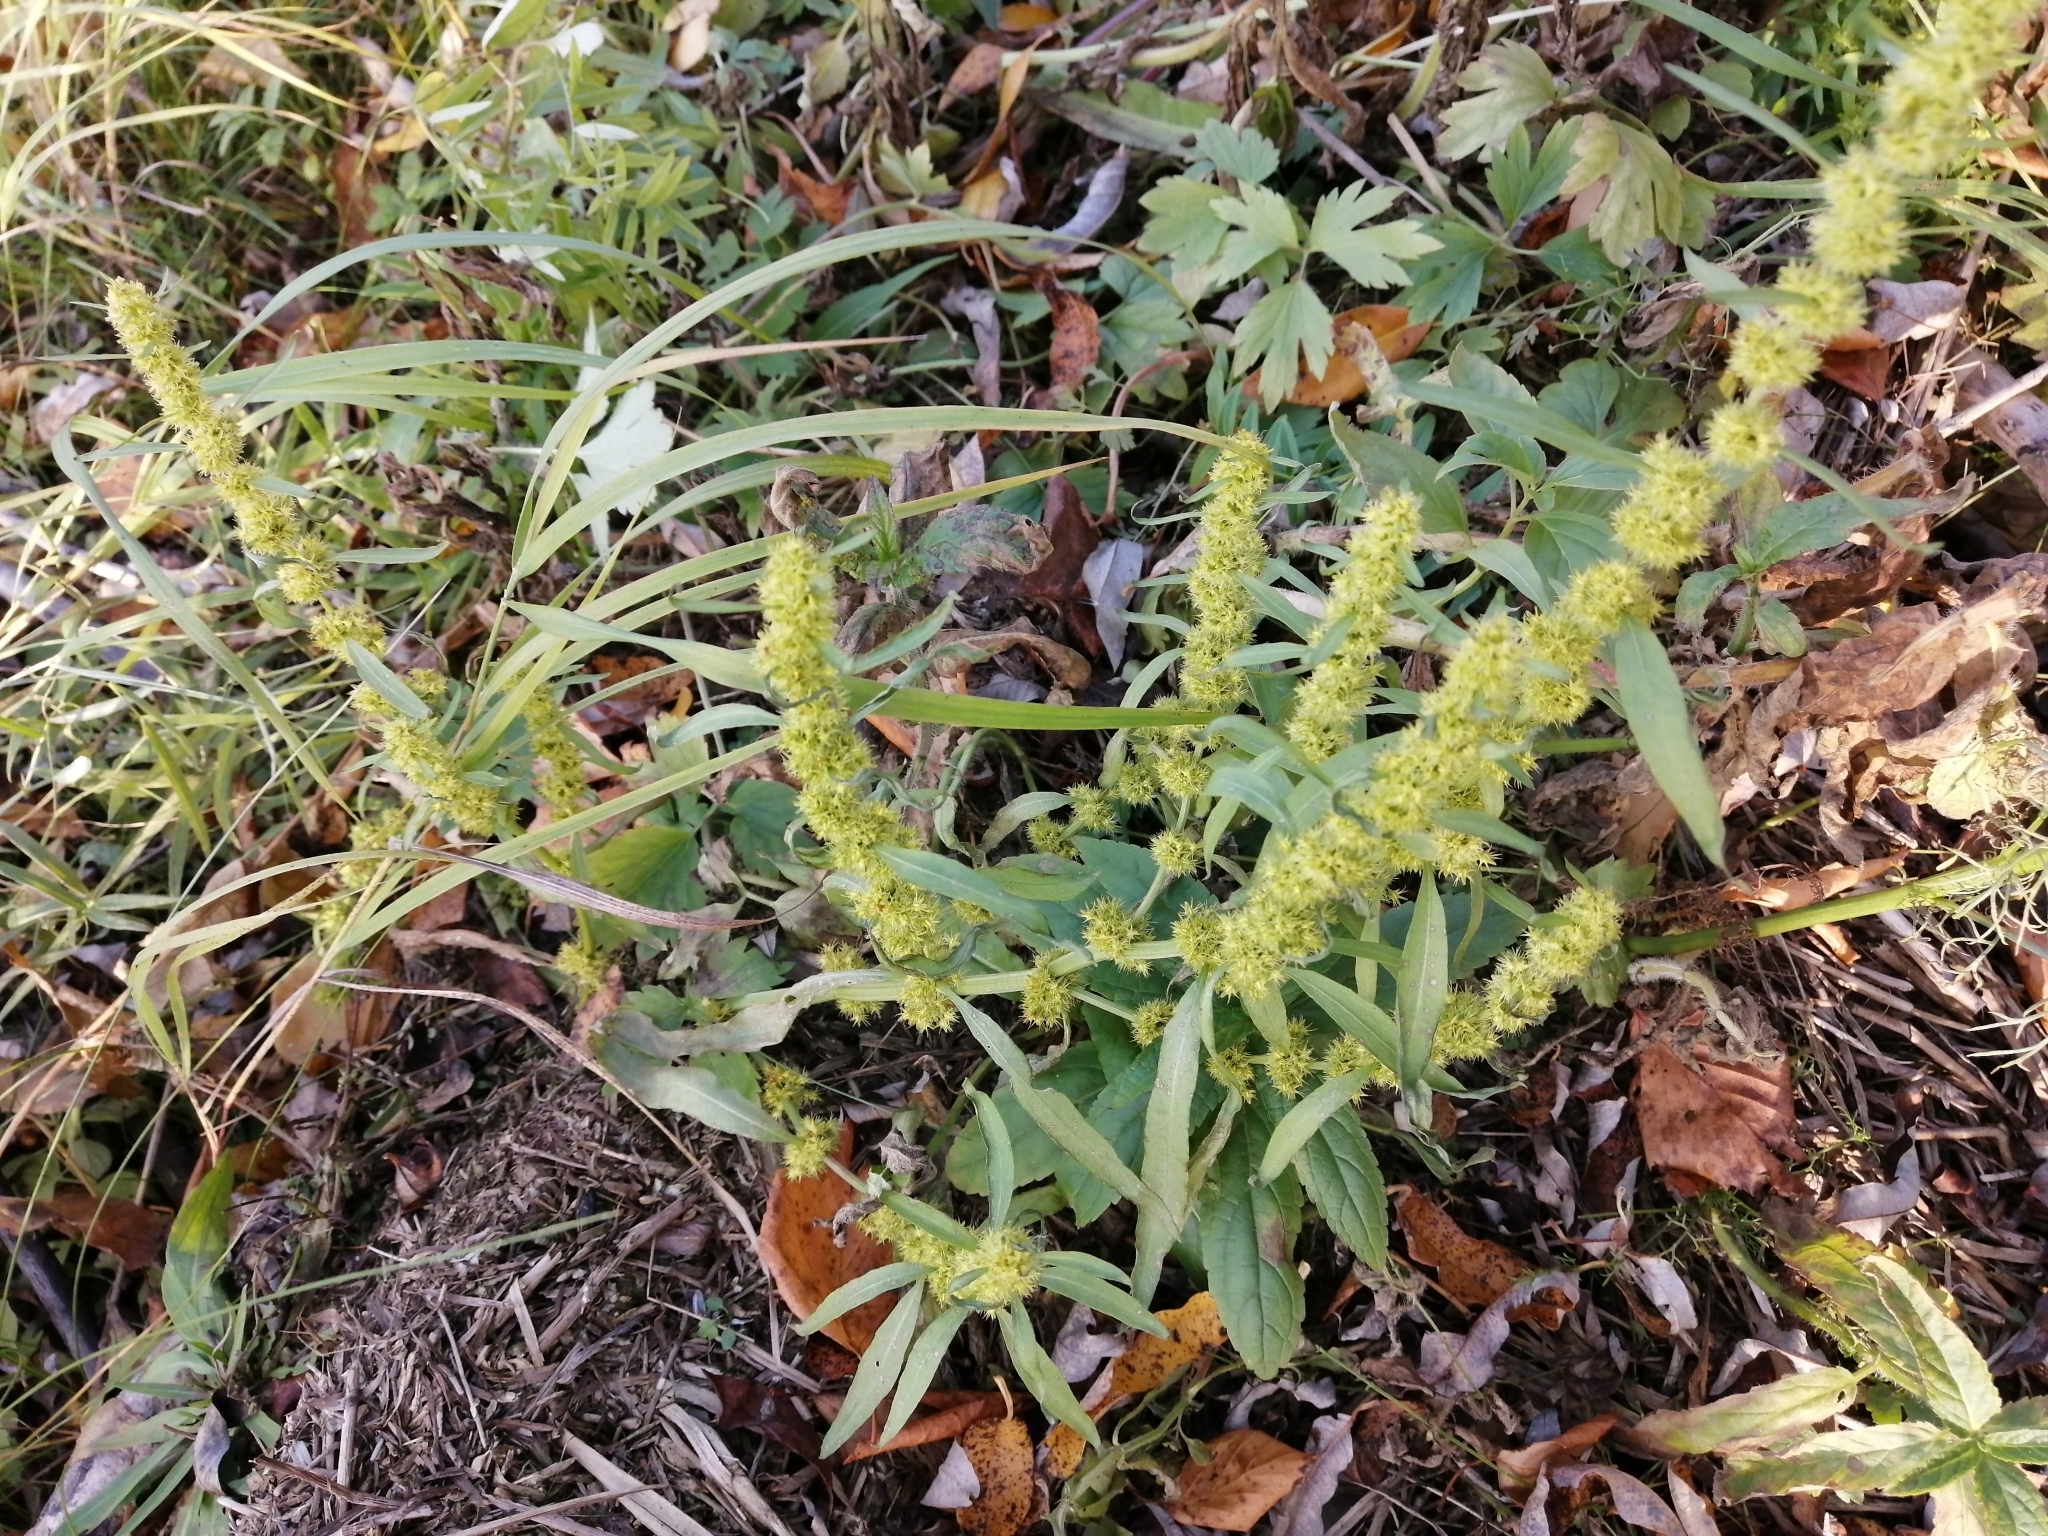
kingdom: Plantae
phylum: Tracheophyta
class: Magnoliopsida
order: Caryophyllales
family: Polygonaceae
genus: Rumex
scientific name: Rumex maritimus
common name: Golden dock
